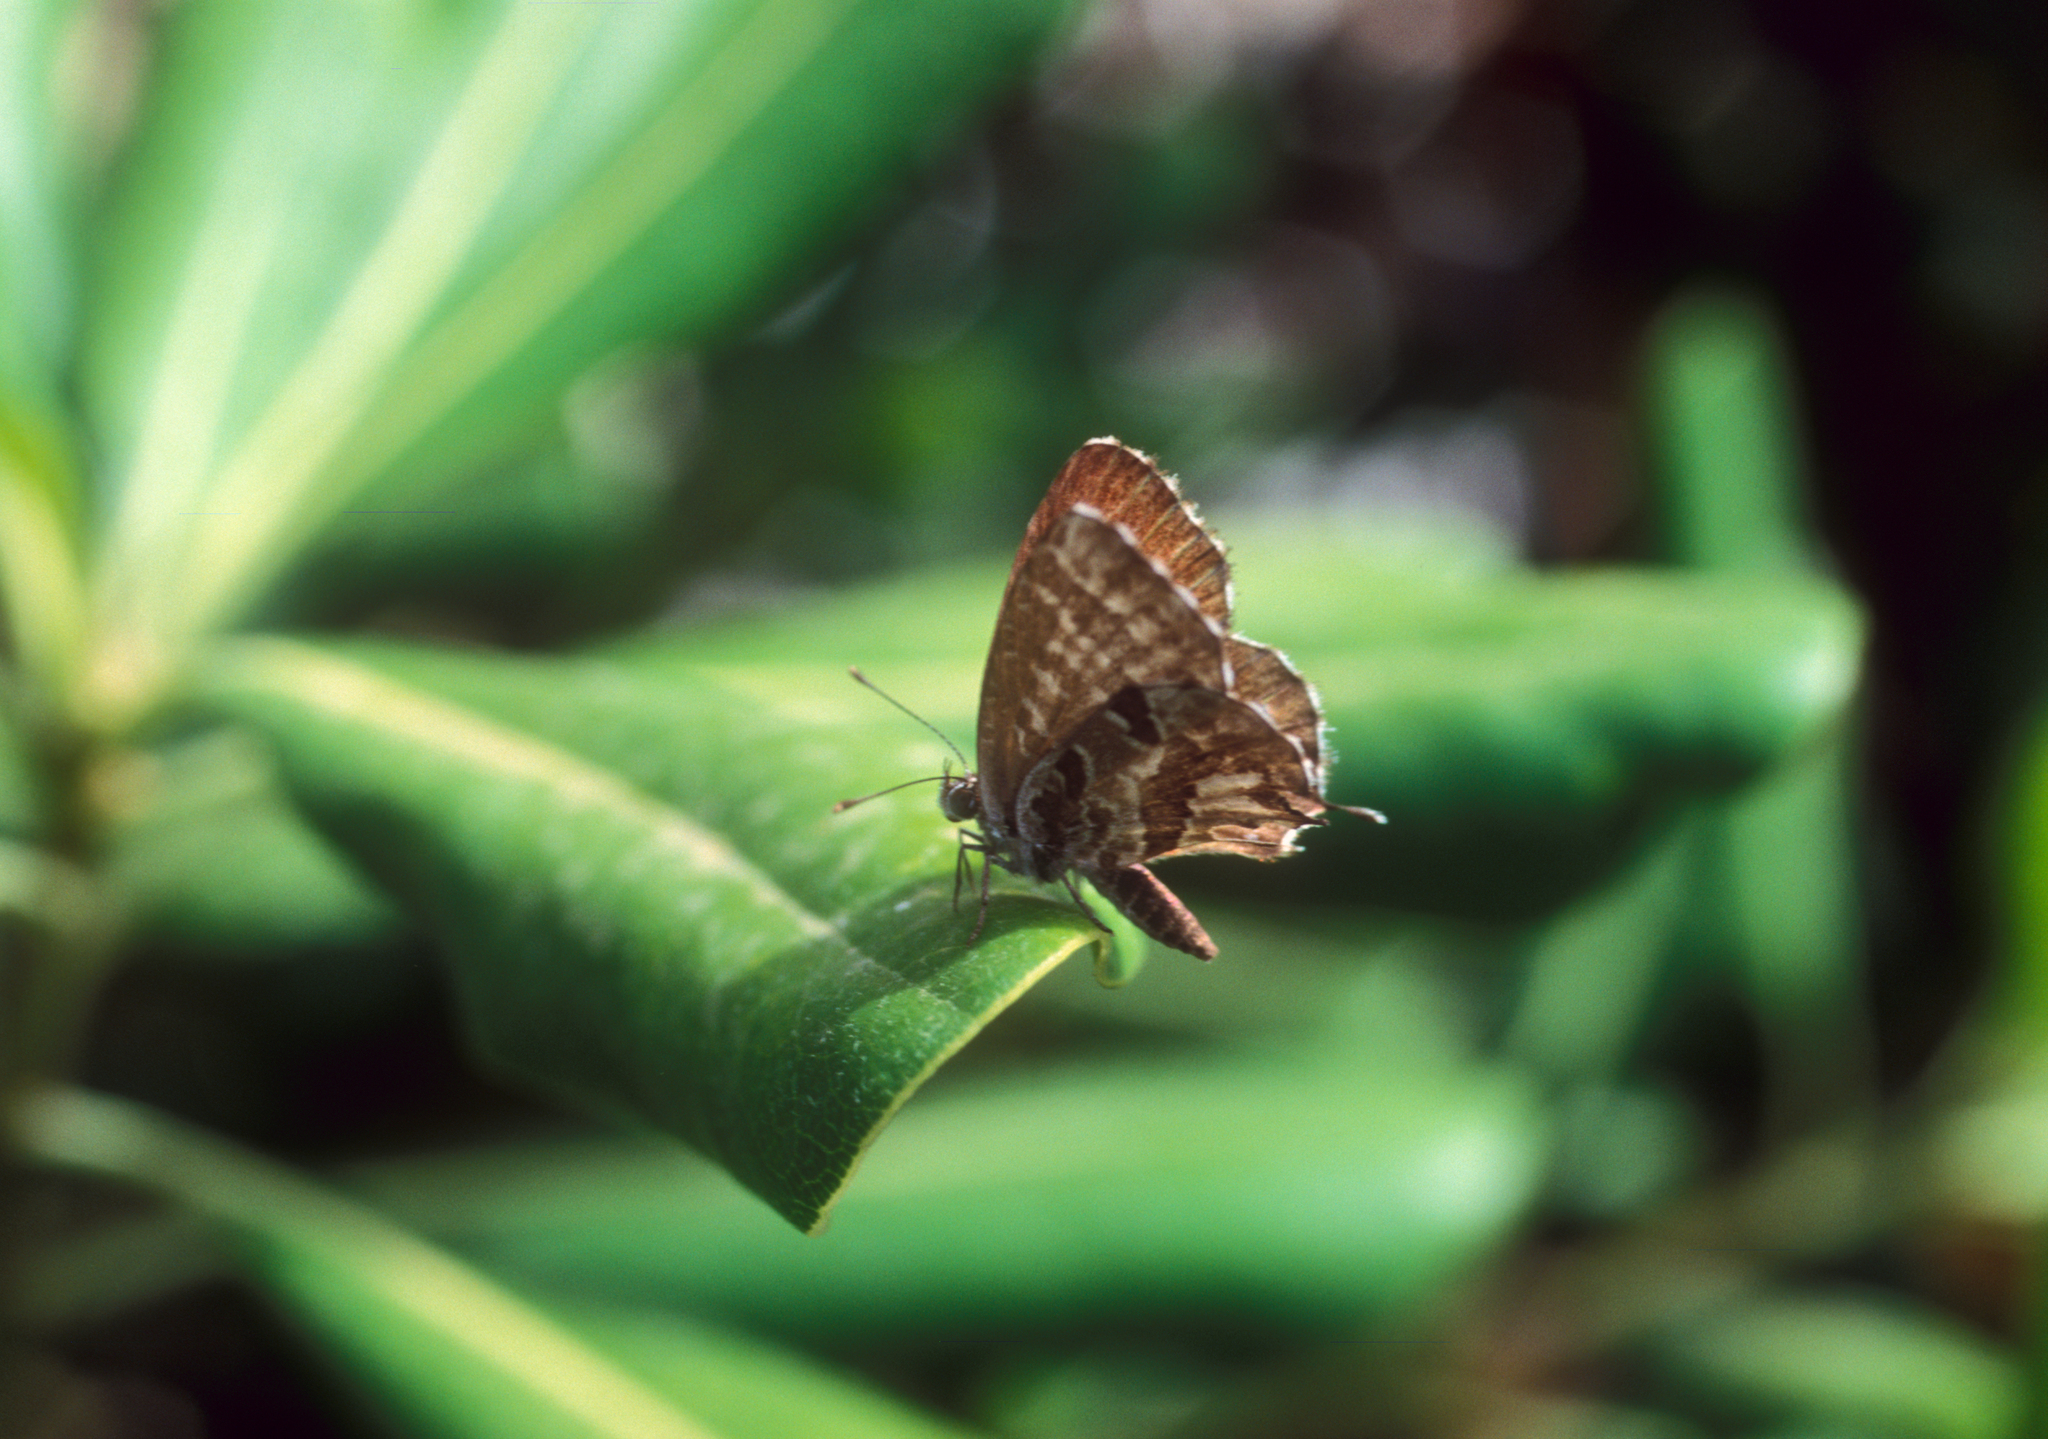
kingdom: Animalia
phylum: Arthropoda
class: Insecta
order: Lepidoptera
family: Lycaenidae
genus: Cacyreus
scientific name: Cacyreus marshalli
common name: Geranium bronze
